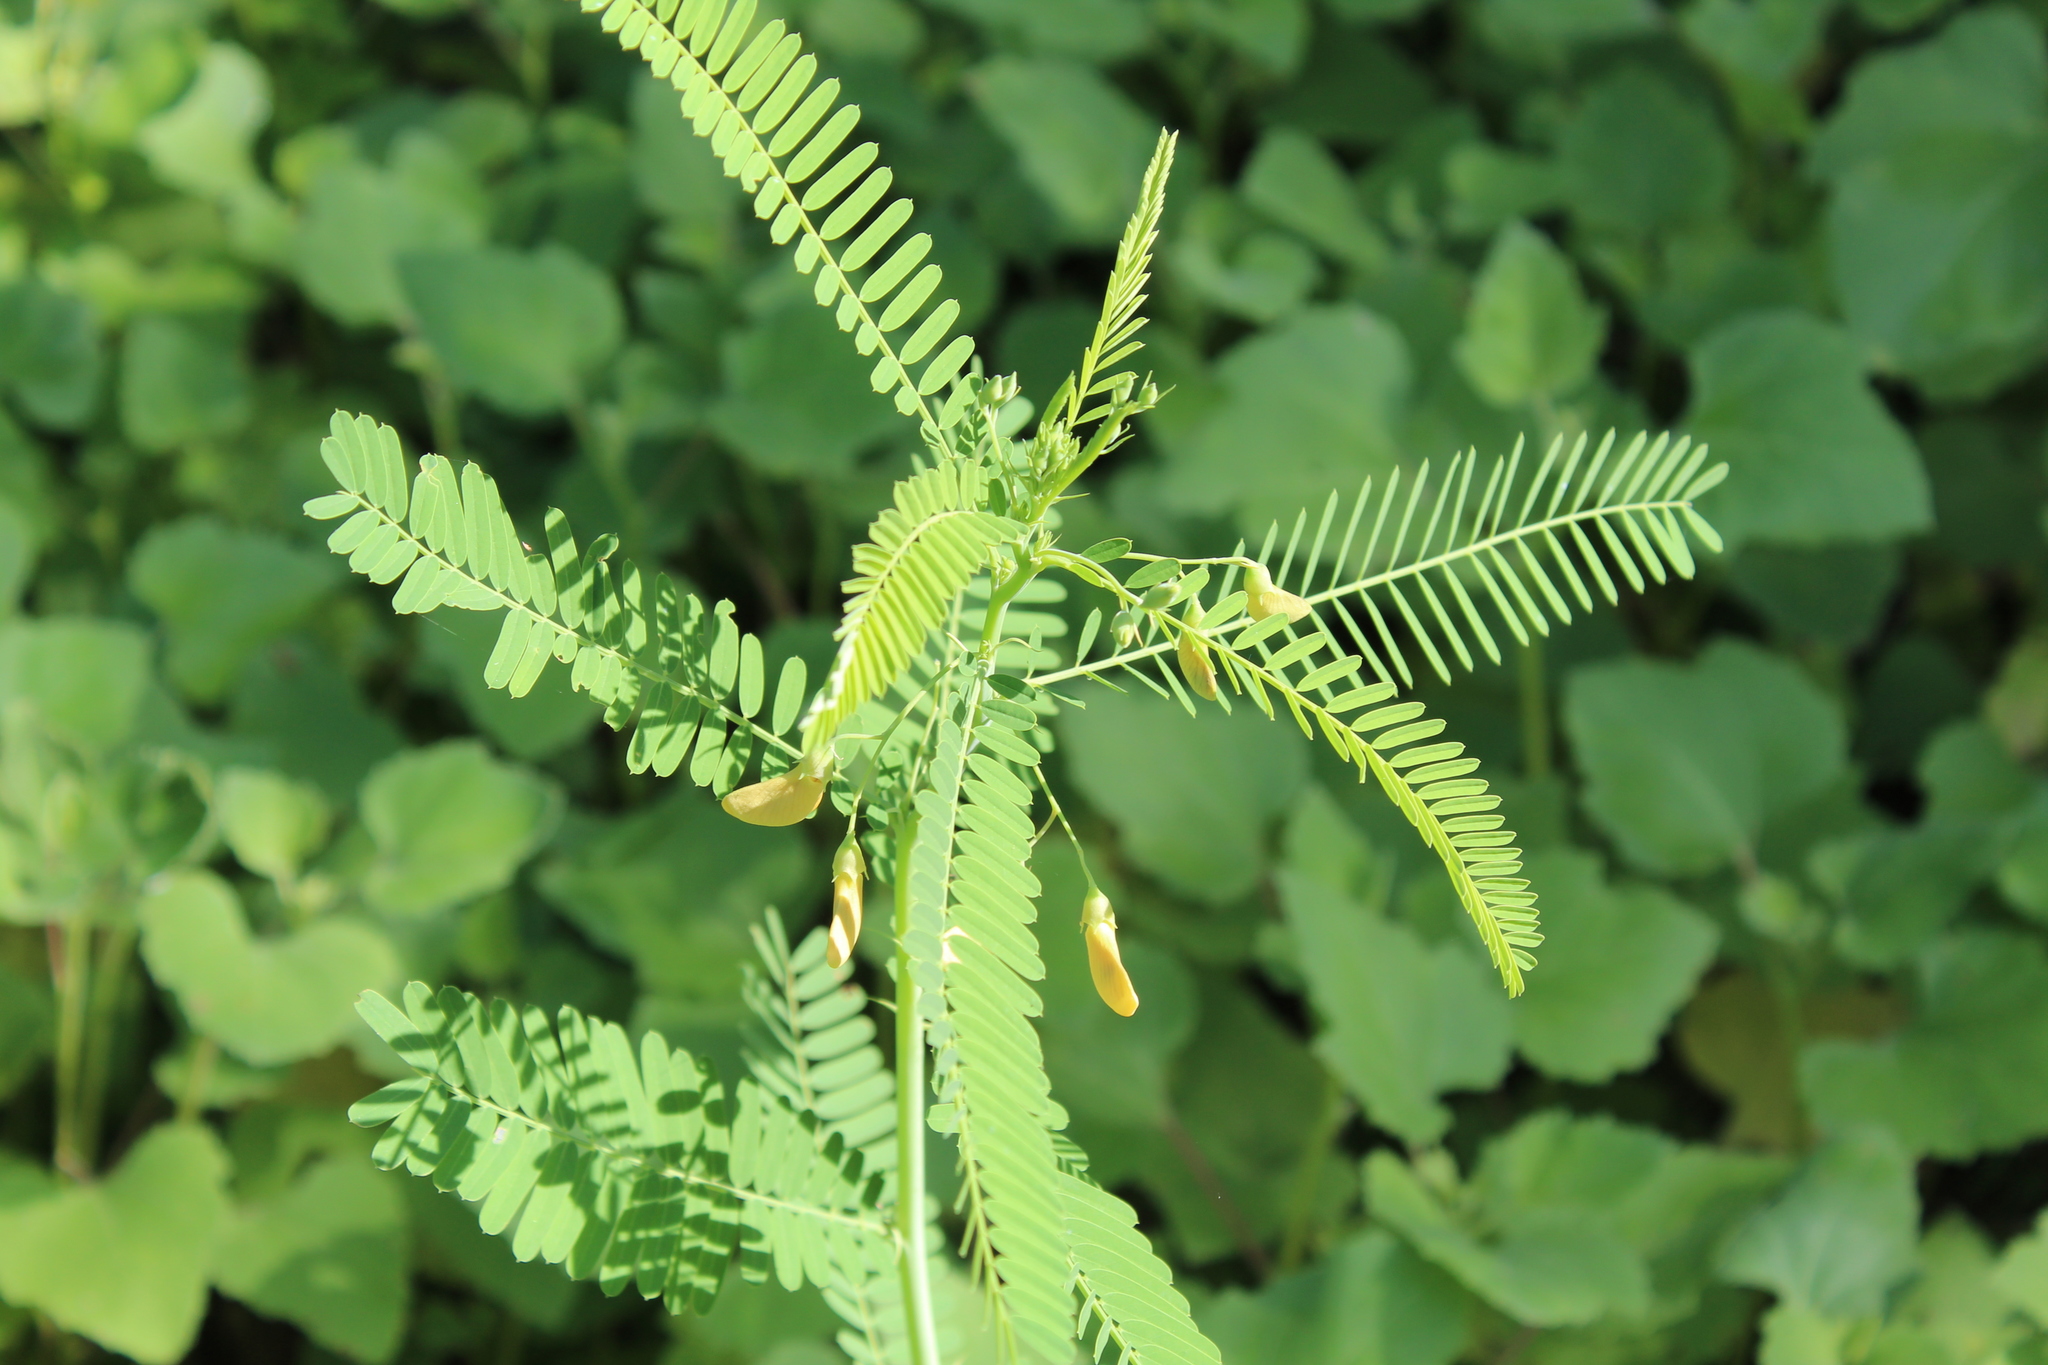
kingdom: Plantae
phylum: Tracheophyta
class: Magnoliopsida
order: Fabales
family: Fabaceae
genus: Sesbania
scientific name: Sesbania herbacea
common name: Bigpod sesbania
